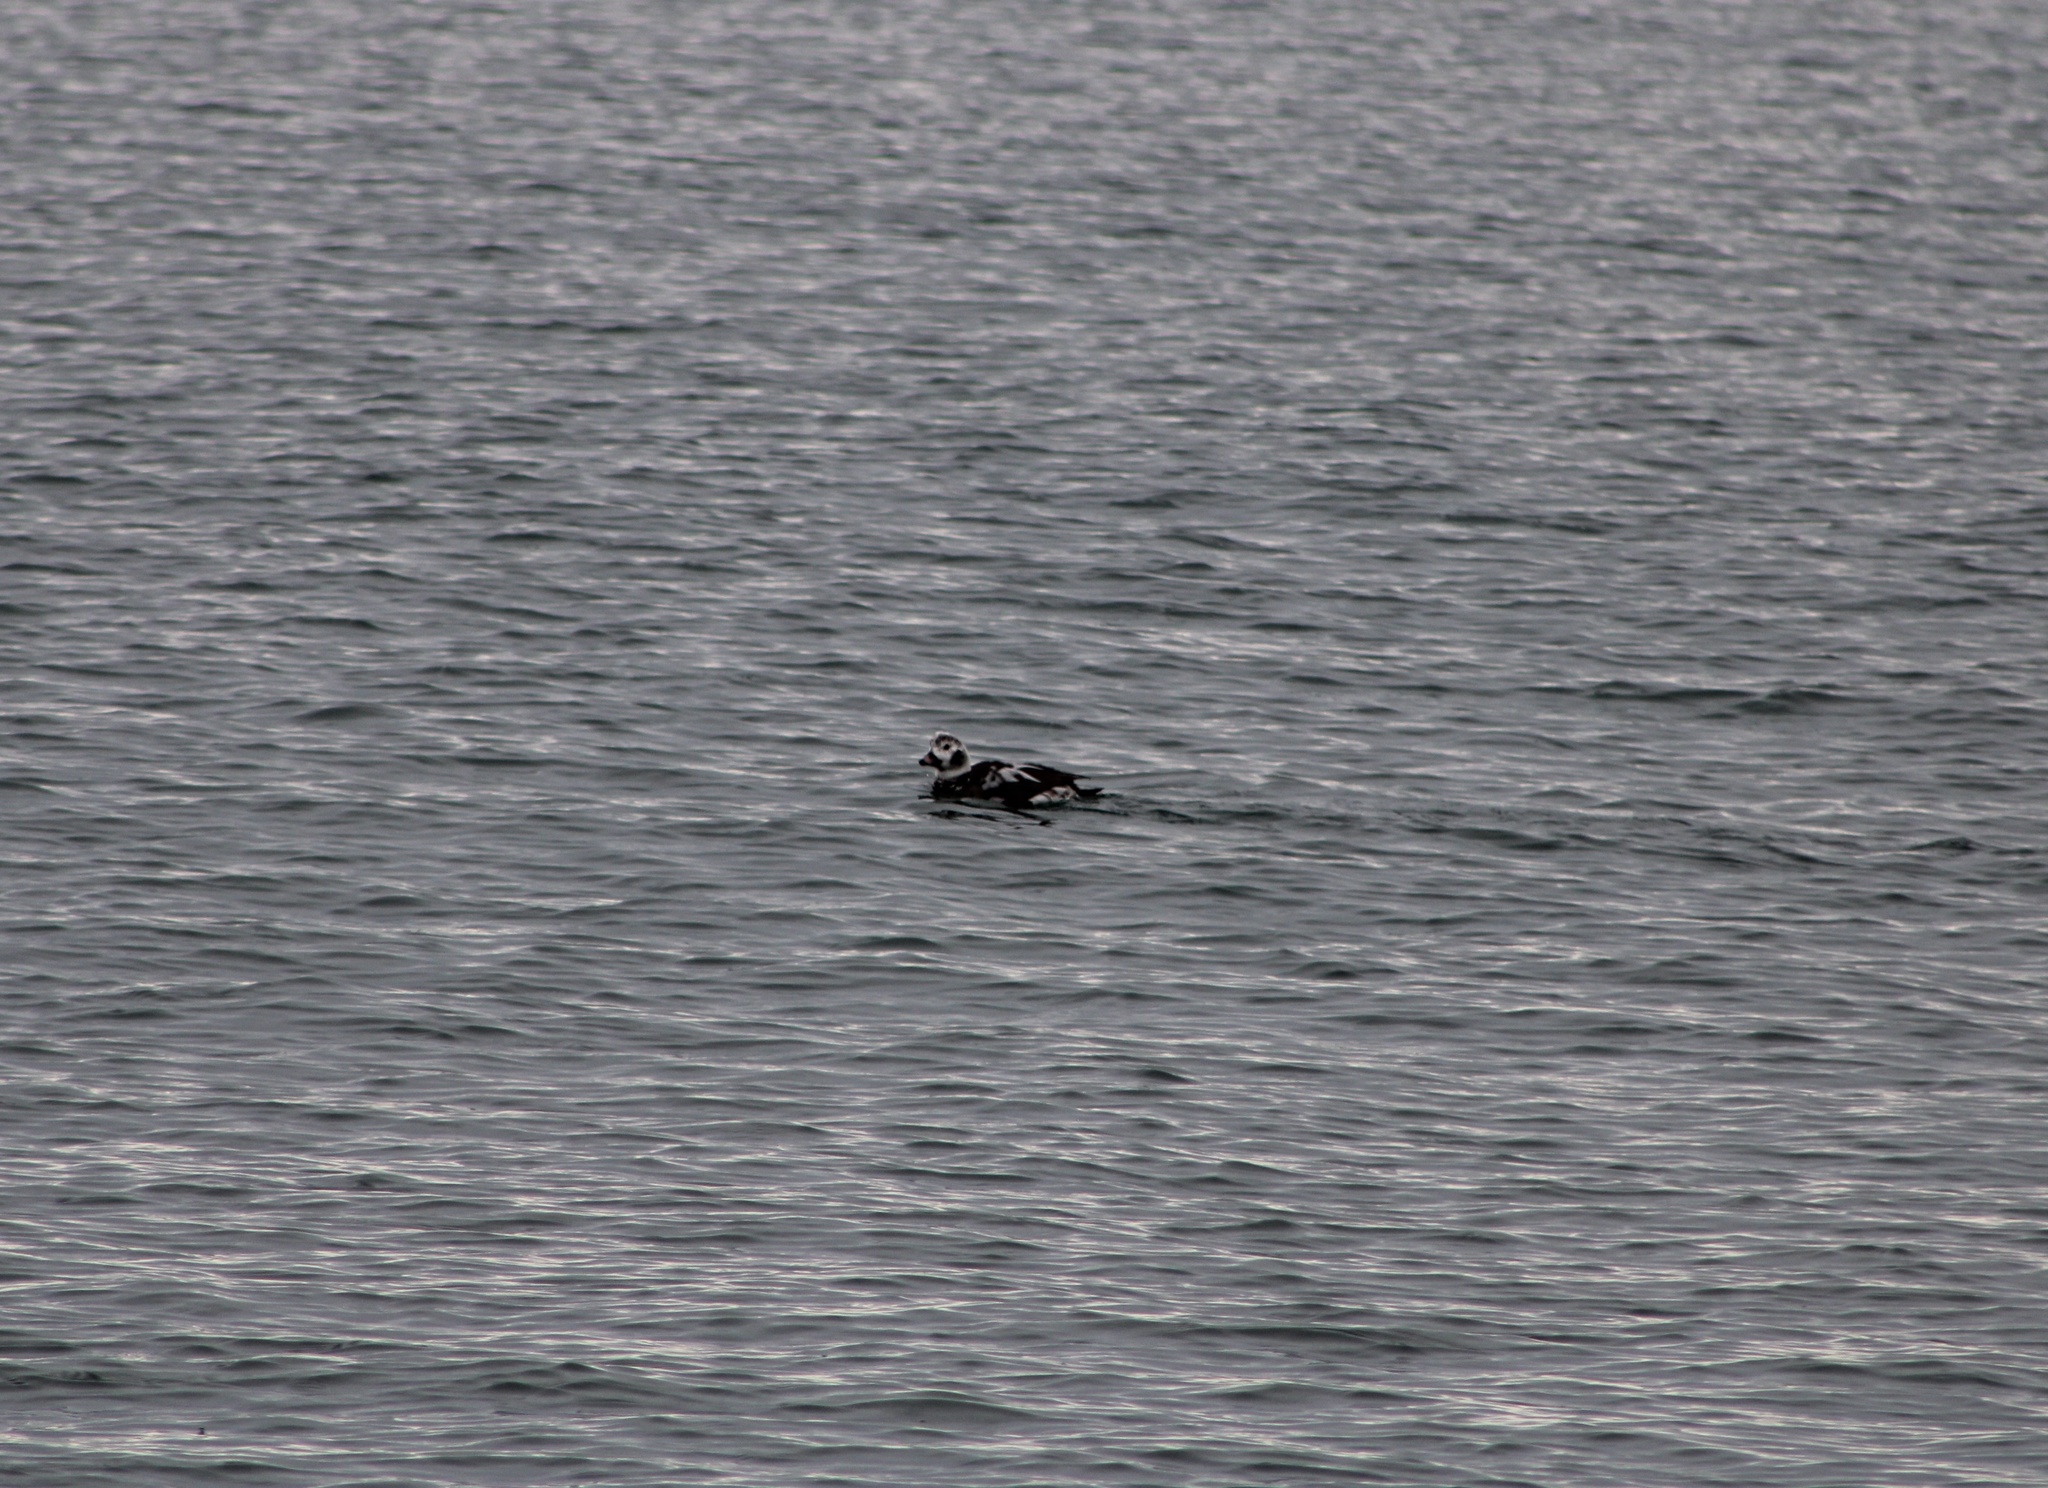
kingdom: Animalia
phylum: Chordata
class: Aves
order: Anseriformes
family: Anatidae
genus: Clangula
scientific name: Clangula hyemalis
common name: Long-tailed duck
